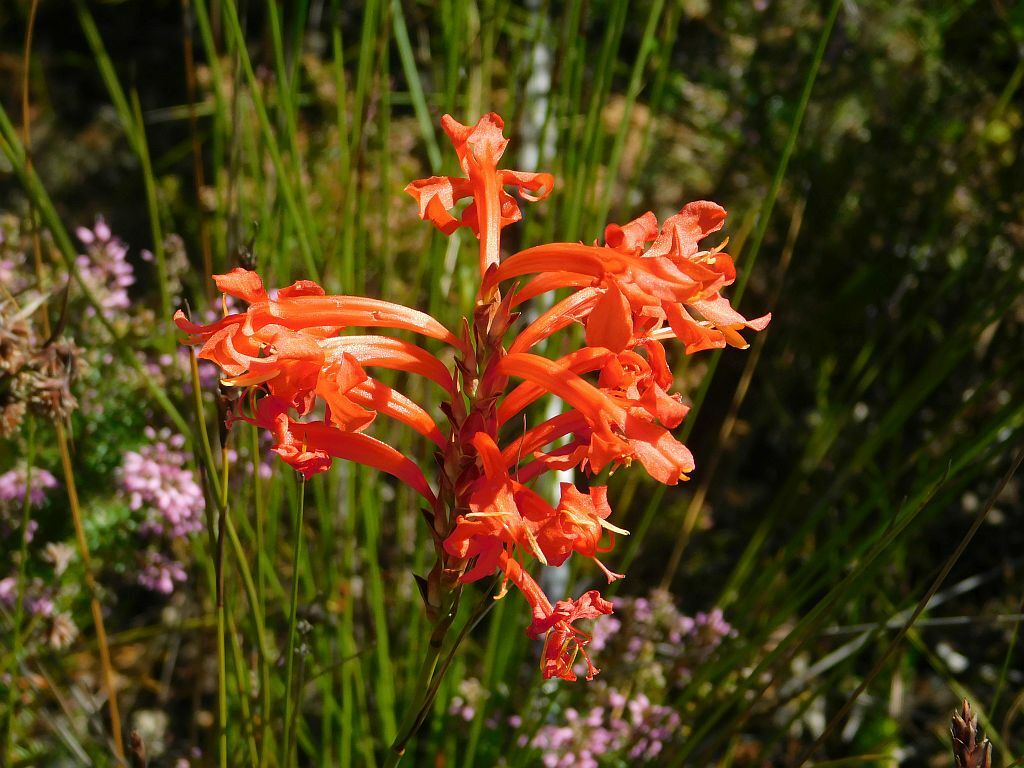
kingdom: Plantae
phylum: Tracheophyta
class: Liliopsida
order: Asparagales
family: Iridaceae
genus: Tritoniopsis
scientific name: Tritoniopsis triticea
